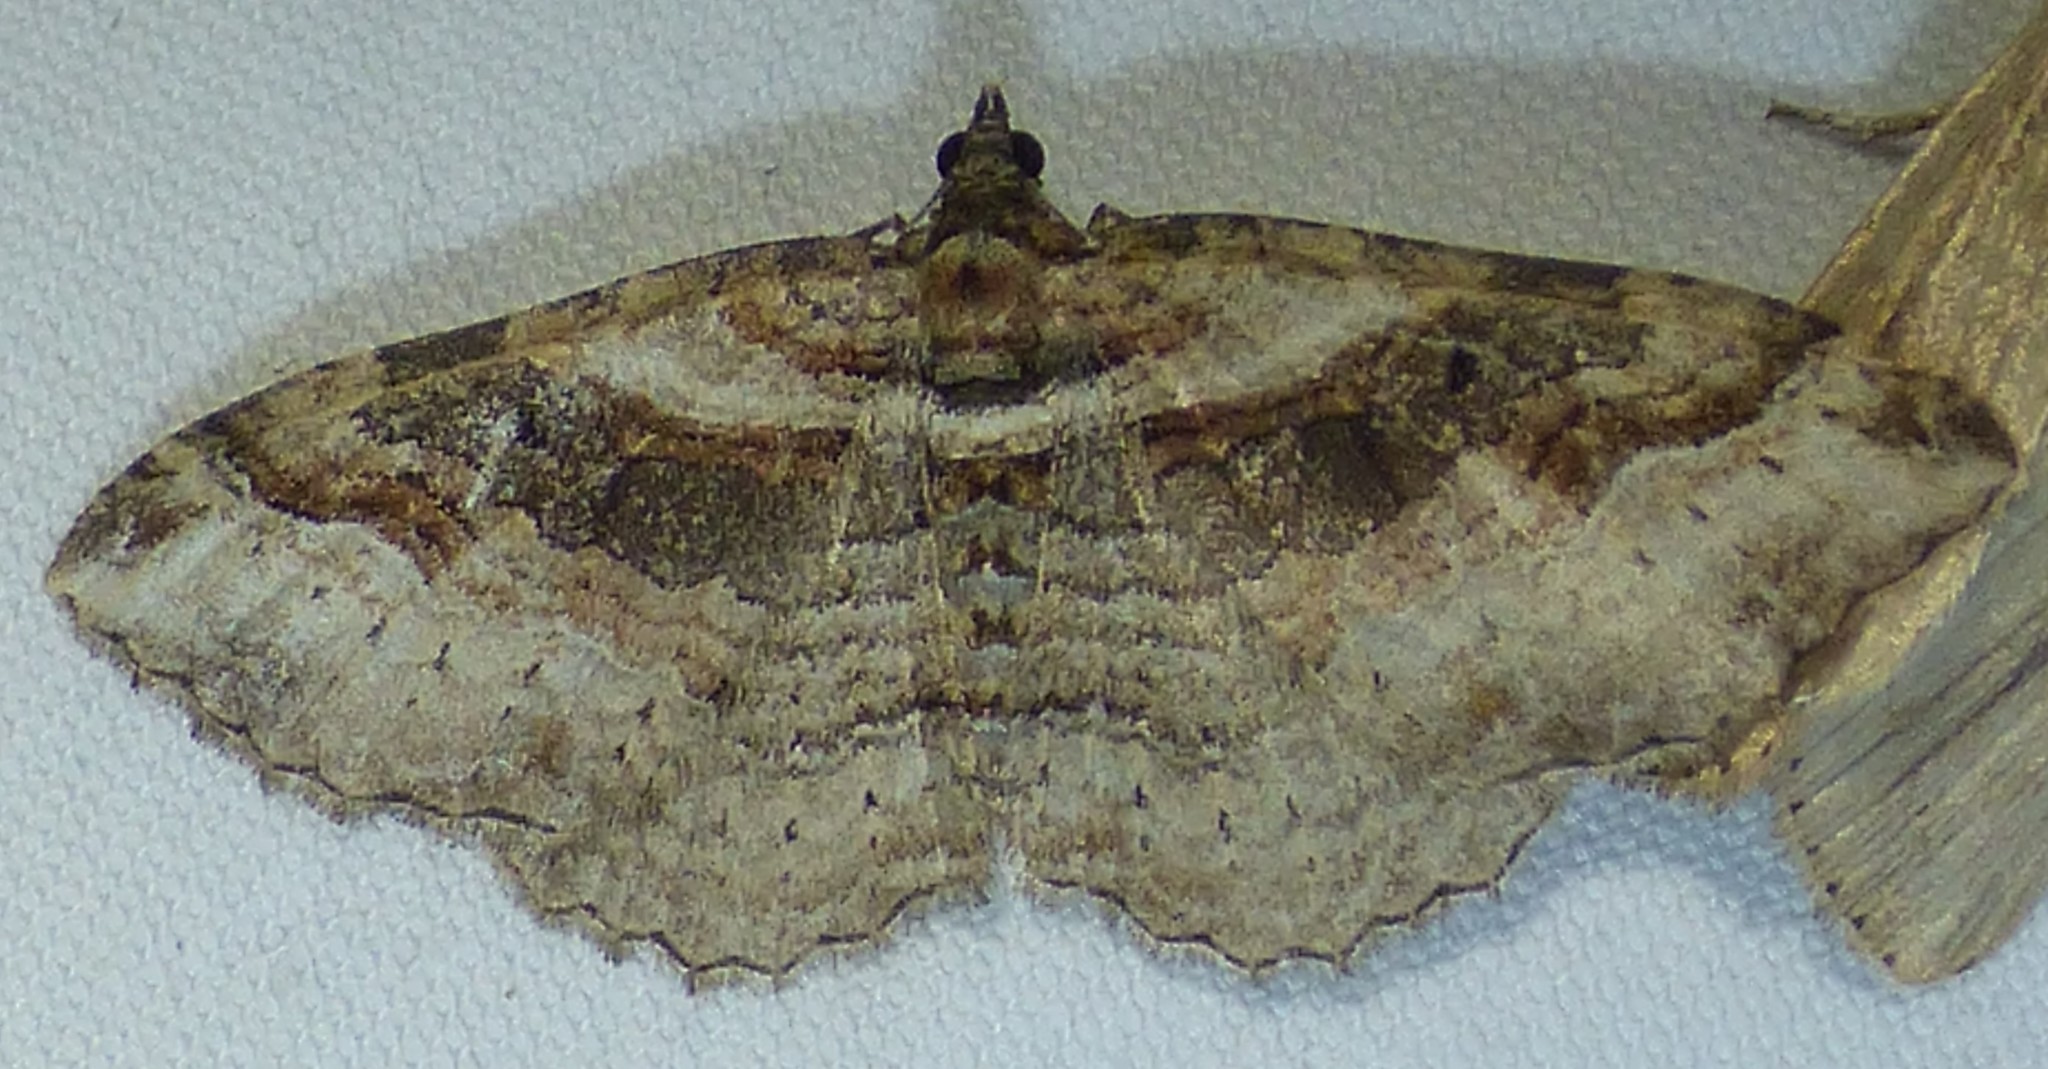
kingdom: Animalia
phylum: Arthropoda
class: Insecta
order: Lepidoptera
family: Geometridae
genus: Costaconvexa
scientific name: Costaconvexa centrostrigaria
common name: Bent-line carpet
